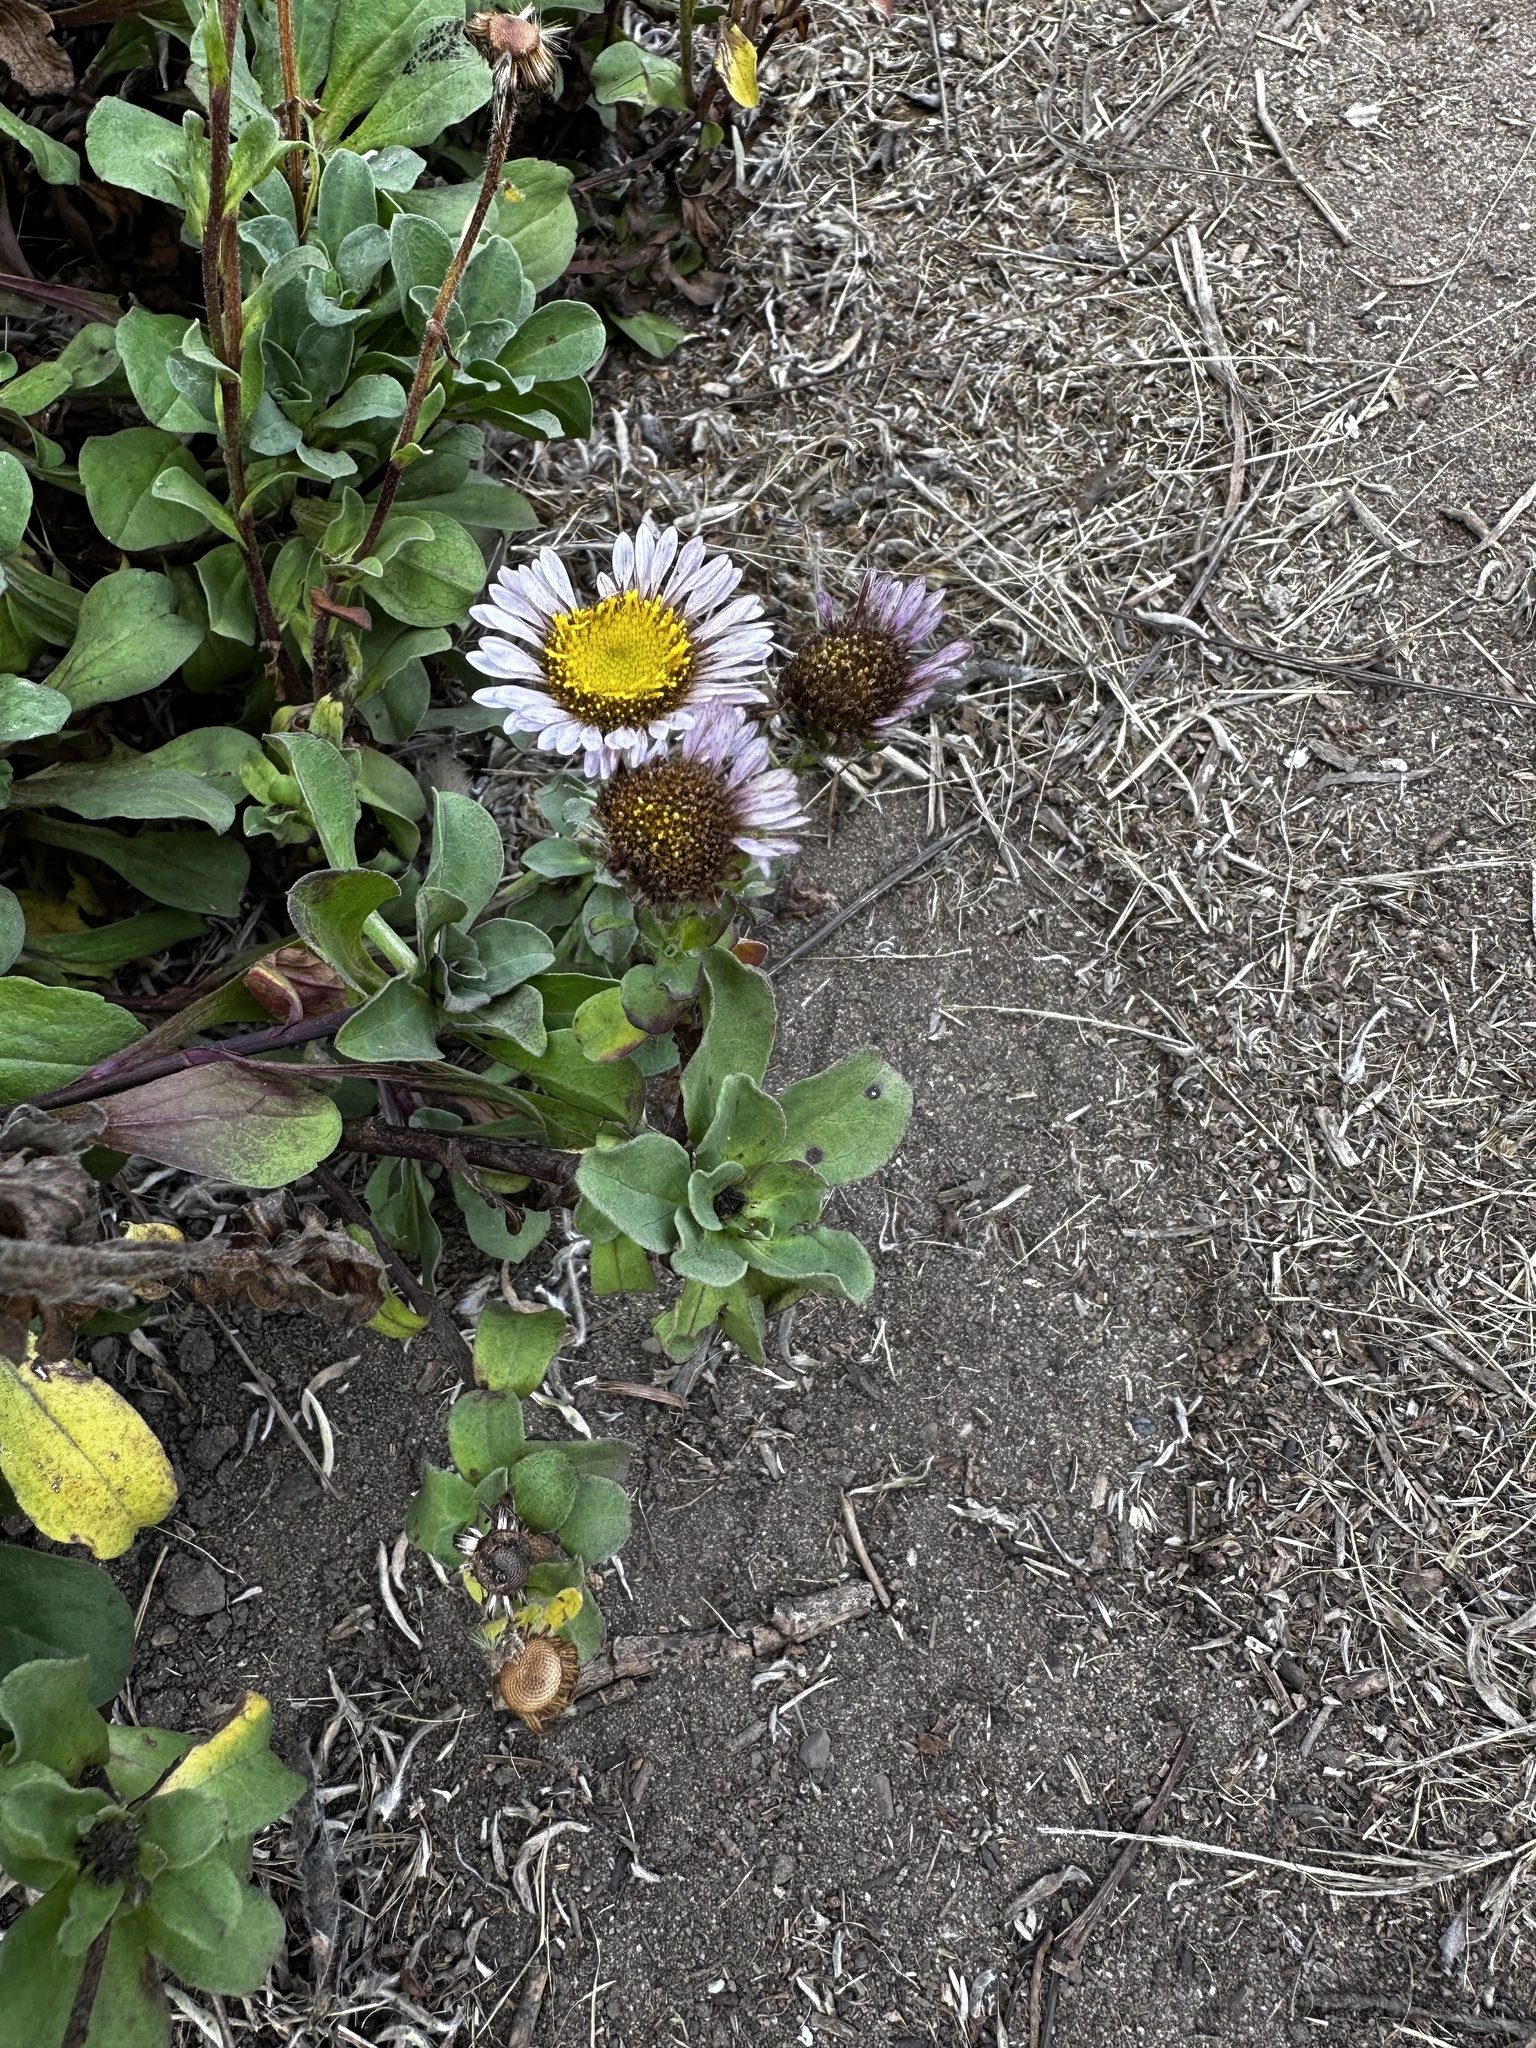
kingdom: Plantae
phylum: Tracheophyta
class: Magnoliopsida
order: Asterales
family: Asteraceae
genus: Erigeron
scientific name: Erigeron glaucus
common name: Seaside daisy
